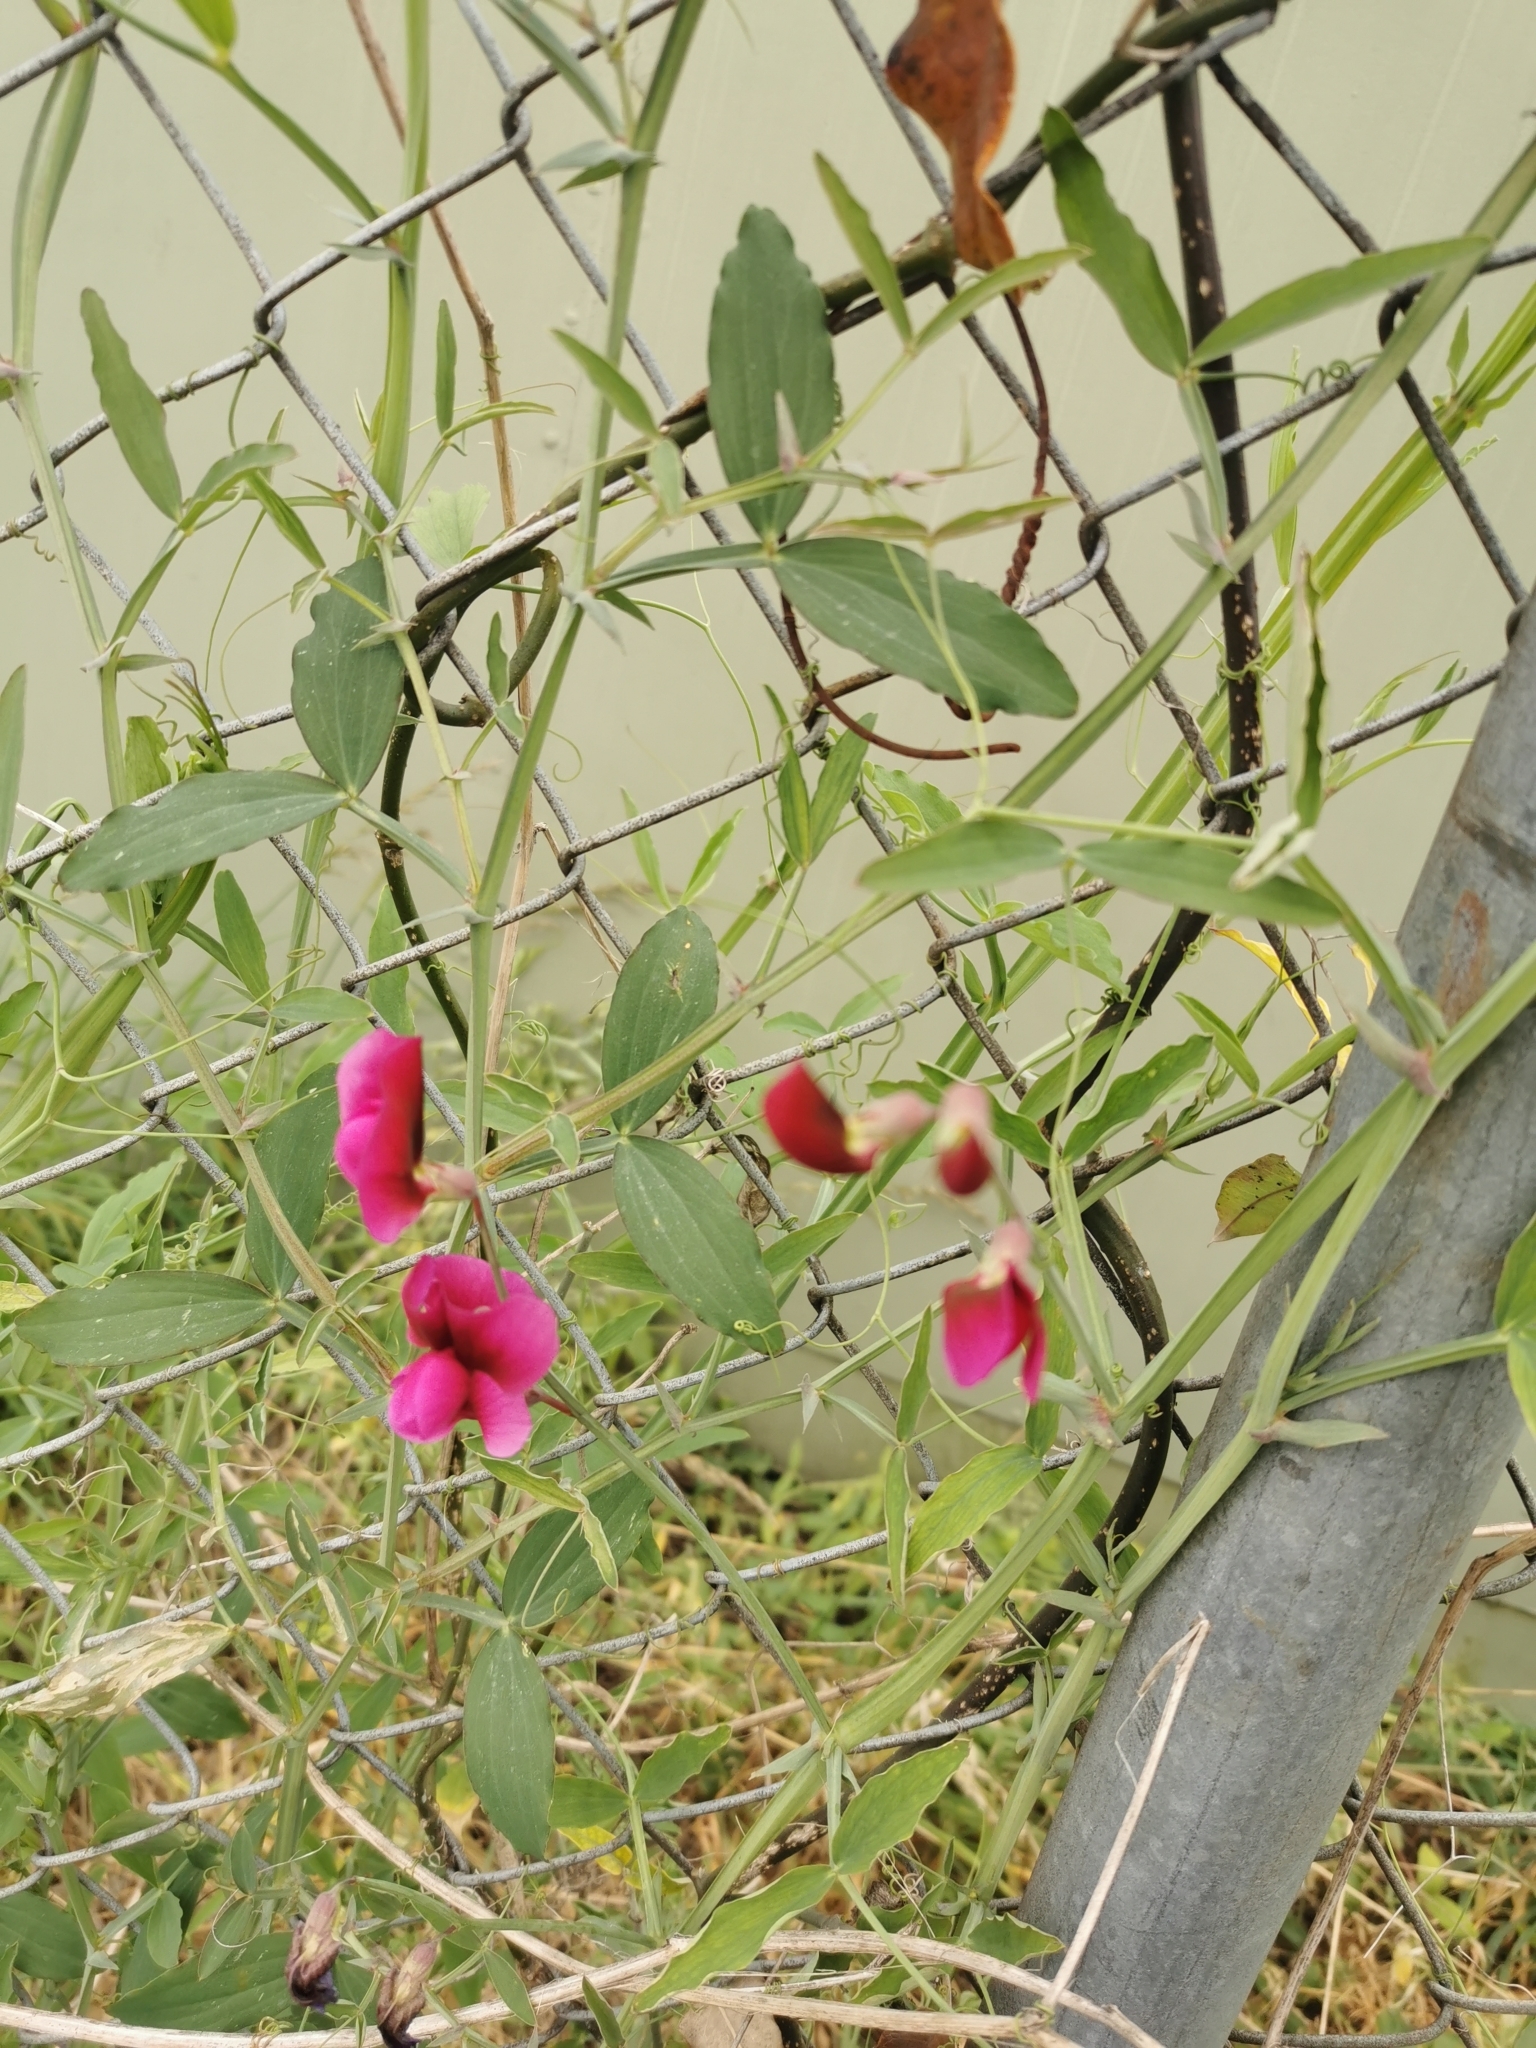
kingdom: Plantae
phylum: Tracheophyta
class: Magnoliopsida
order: Fabales
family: Fabaceae
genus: Lathyrus
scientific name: Lathyrus tingitanus
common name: Tangier pea
